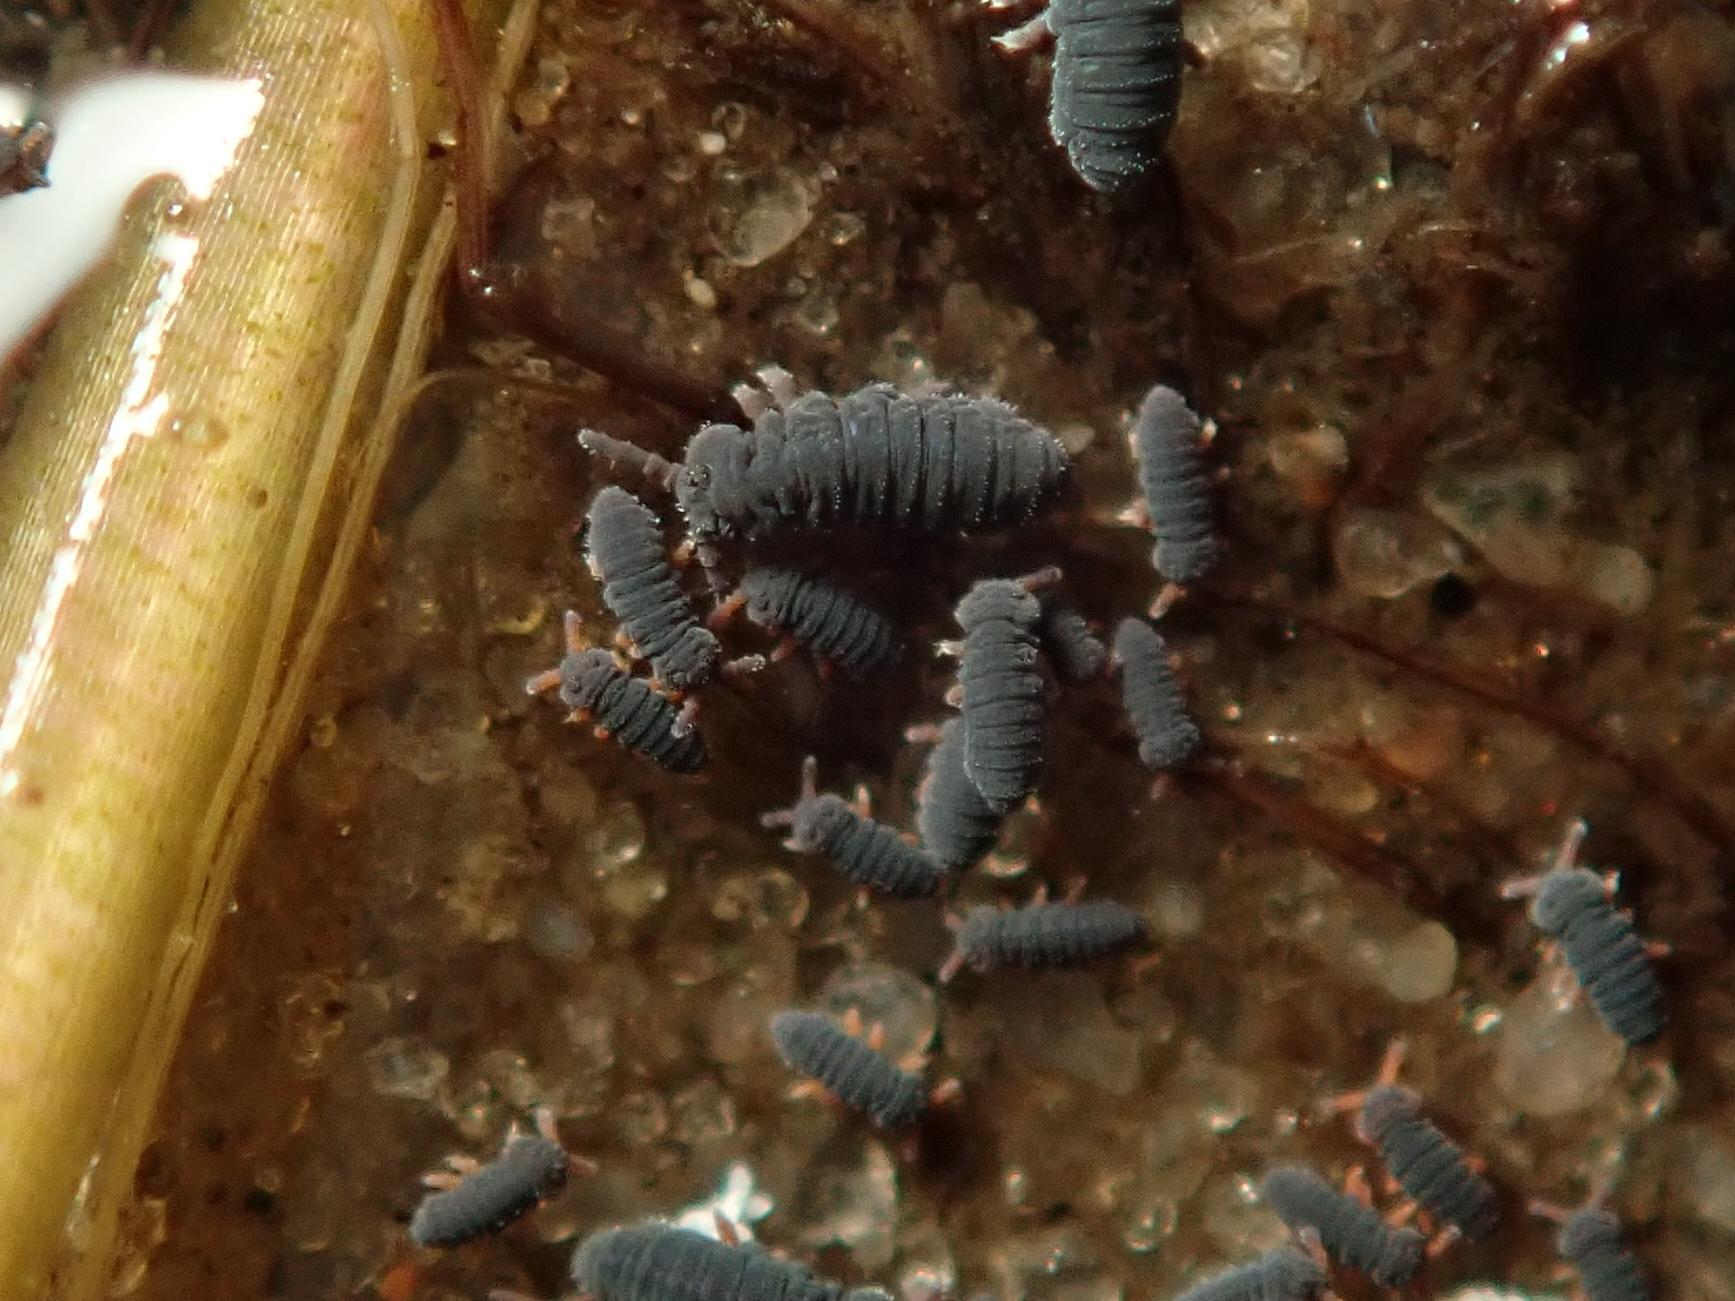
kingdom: Animalia
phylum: Arthropoda
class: Collembola
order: Poduromorpha
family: Poduridae
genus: Podura
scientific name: Podura aquatica
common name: Water springtail
